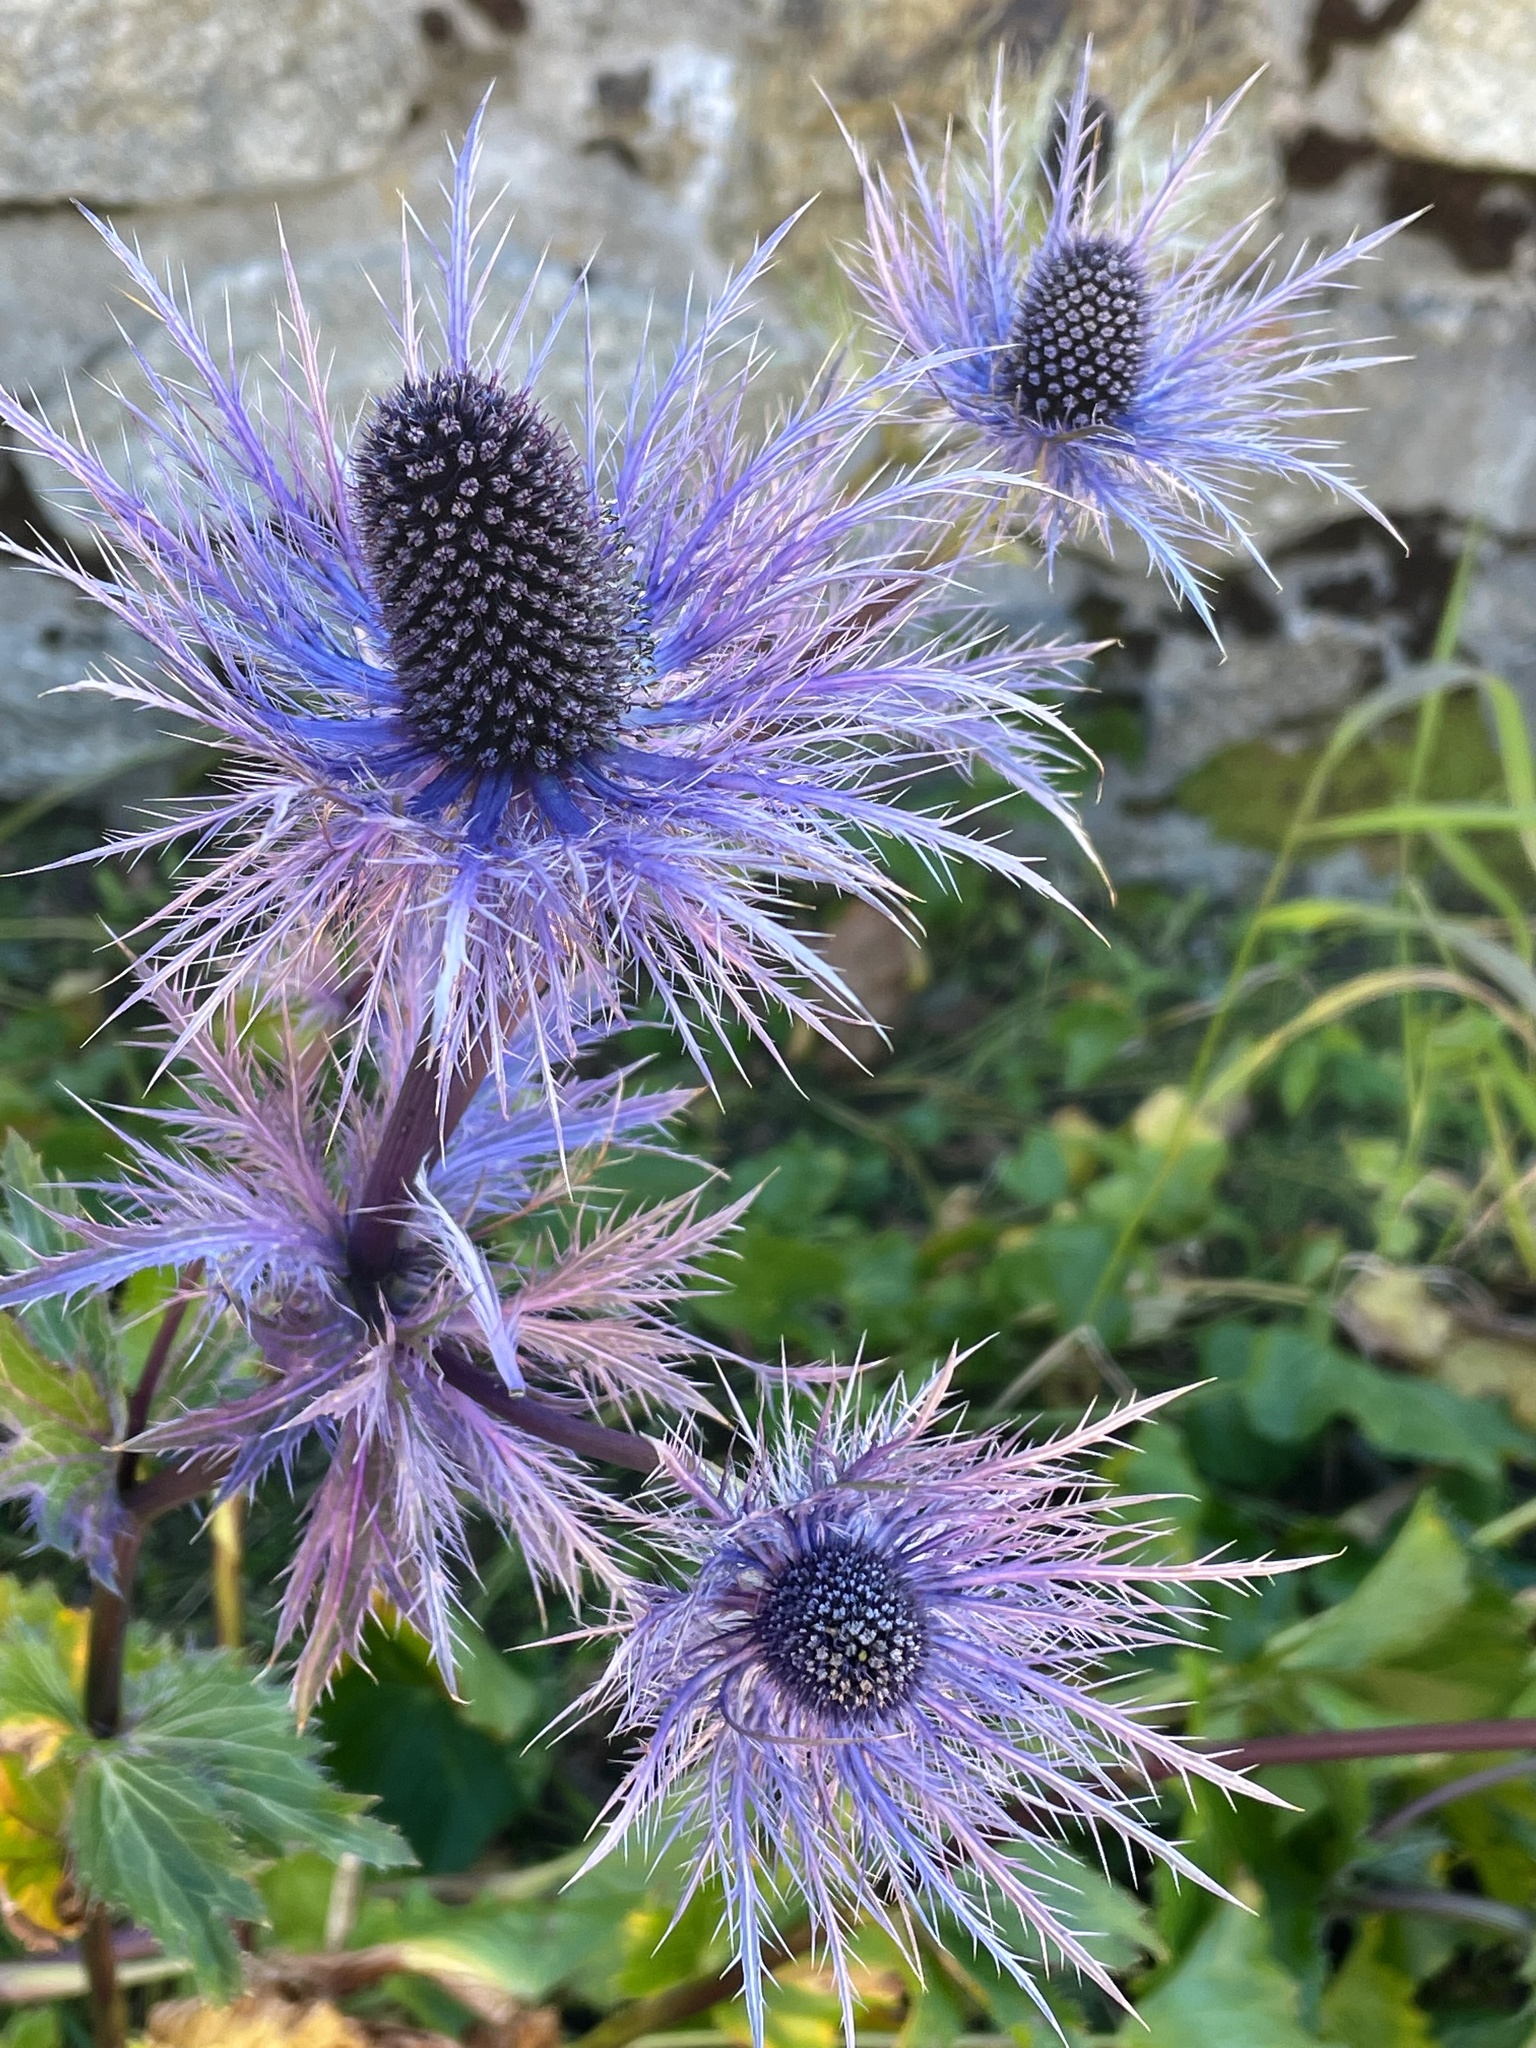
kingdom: Plantae
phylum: Tracheophyta
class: Magnoliopsida
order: Apiales
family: Apiaceae
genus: Eryngium
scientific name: Eryngium alpinum
